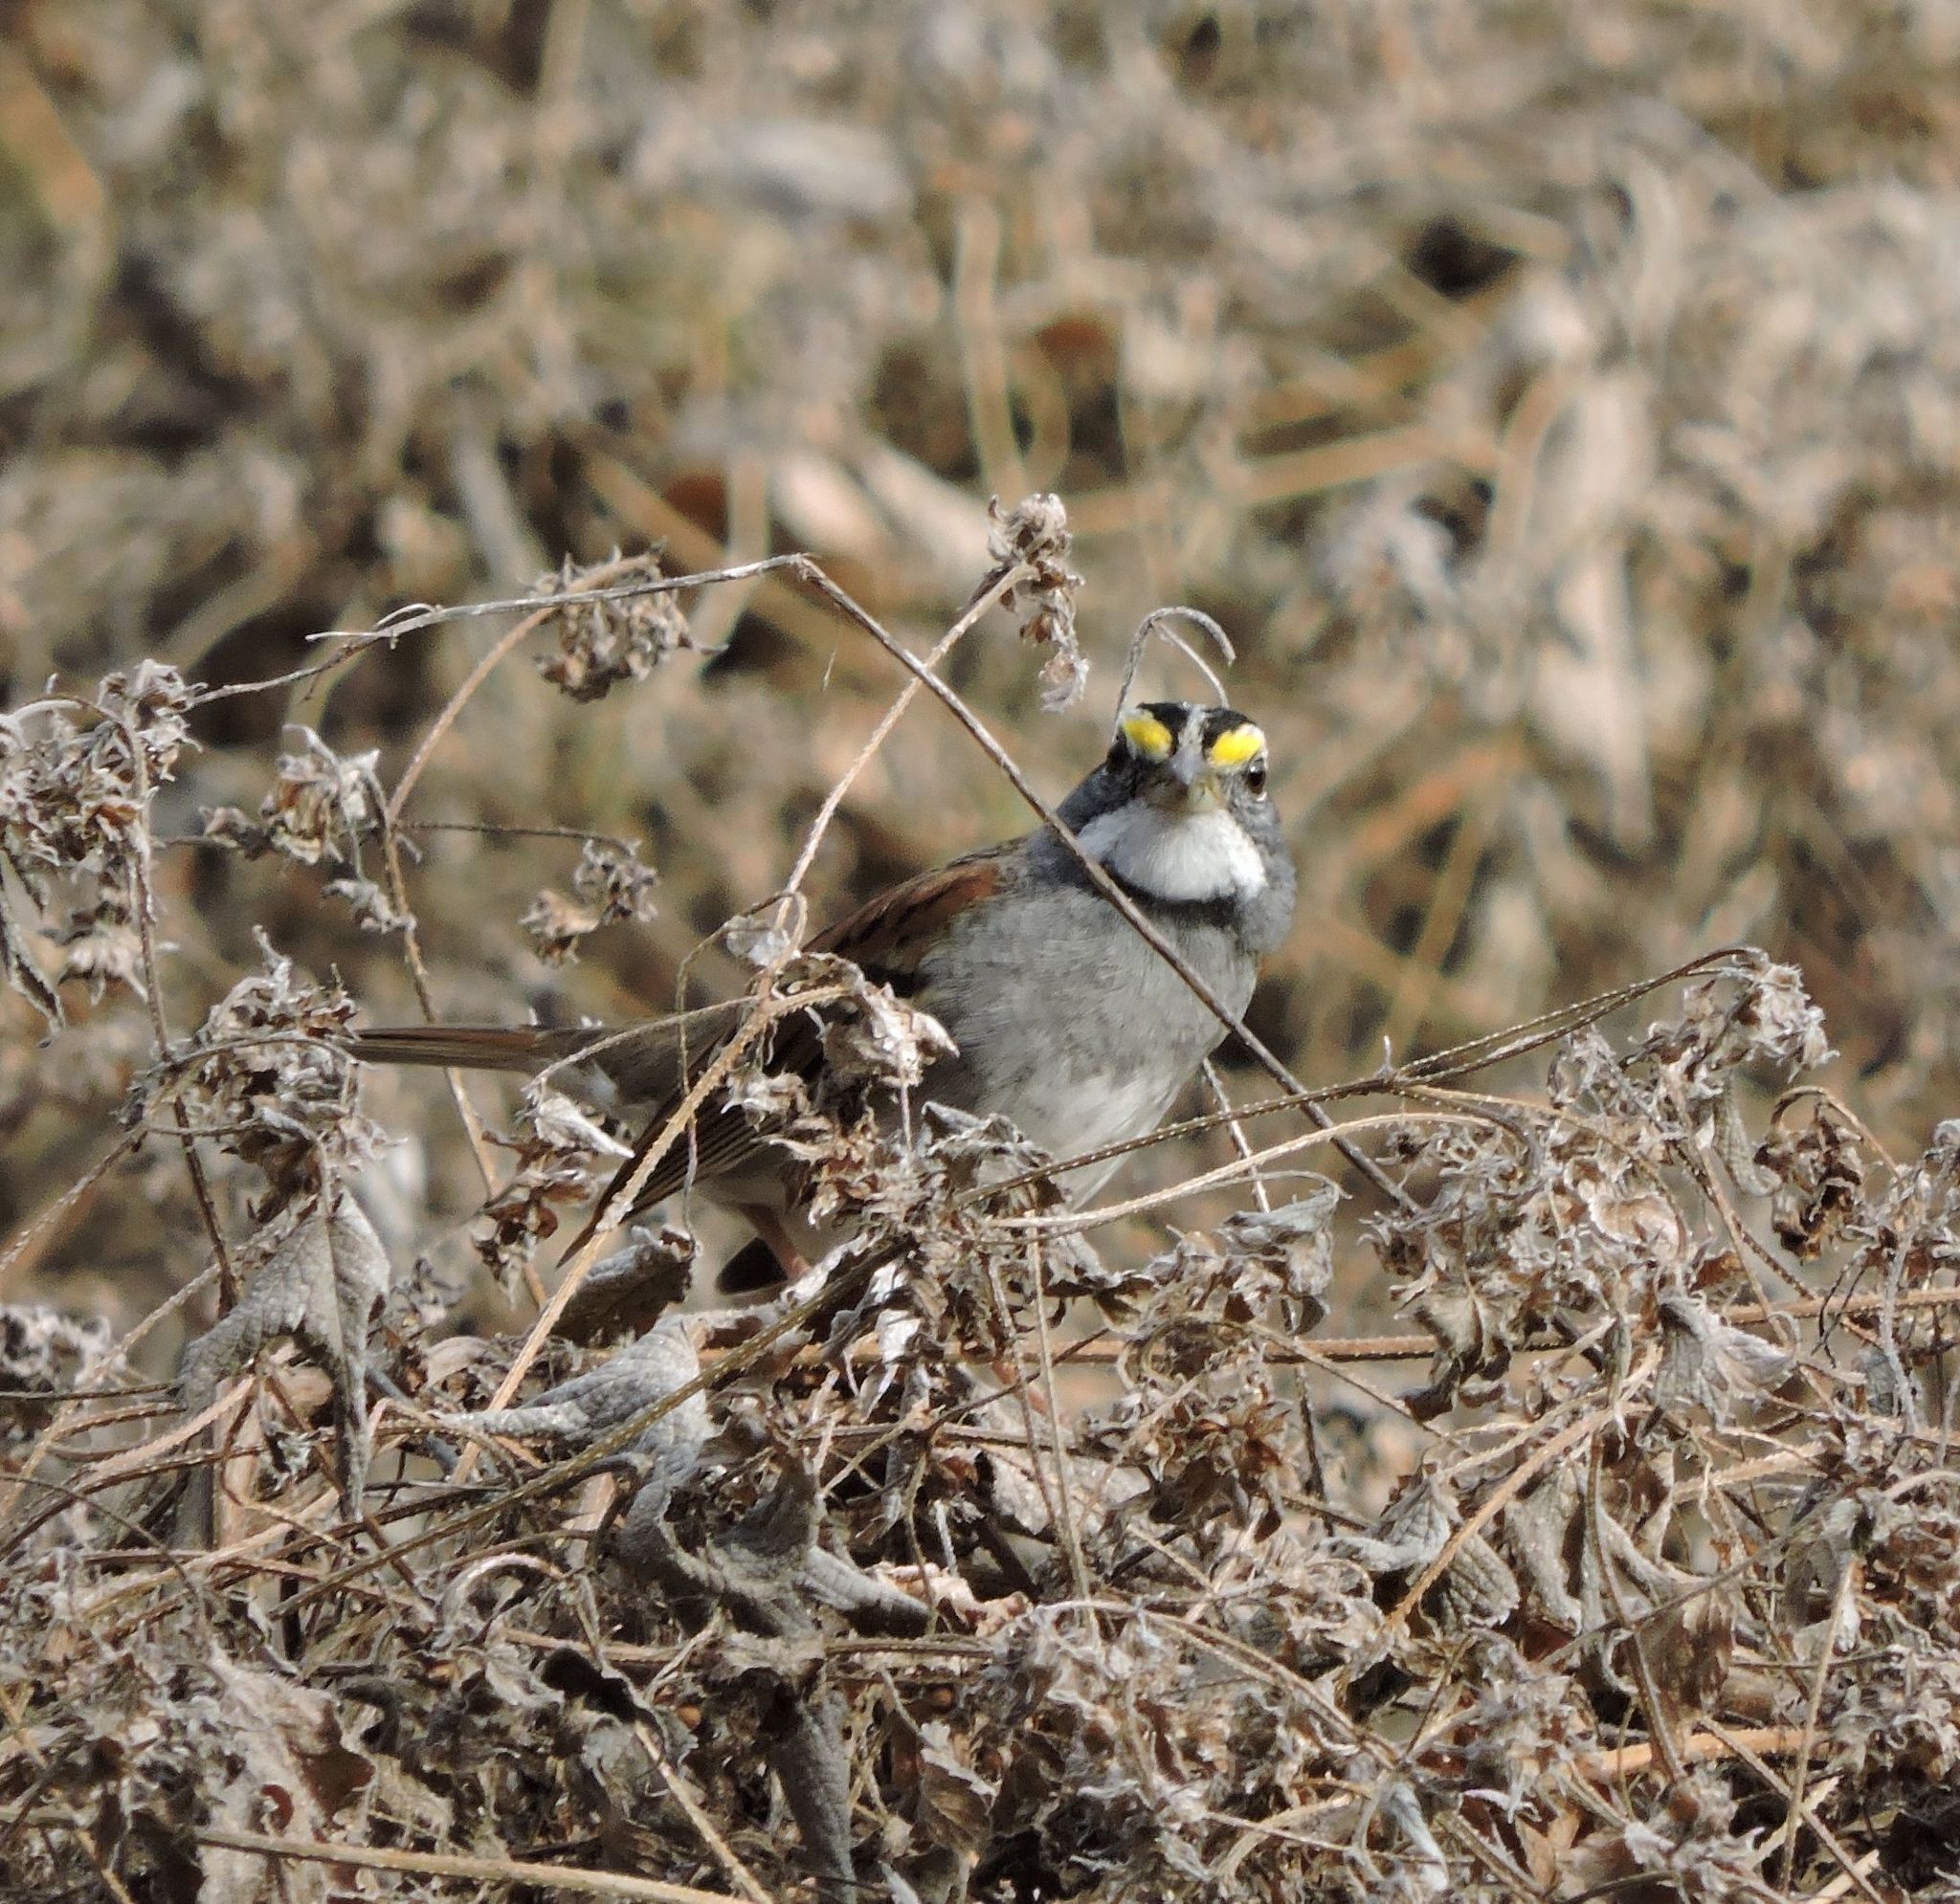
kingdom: Animalia
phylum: Chordata
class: Aves
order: Passeriformes
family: Passerellidae
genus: Zonotrichia
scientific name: Zonotrichia albicollis
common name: White-throated sparrow
